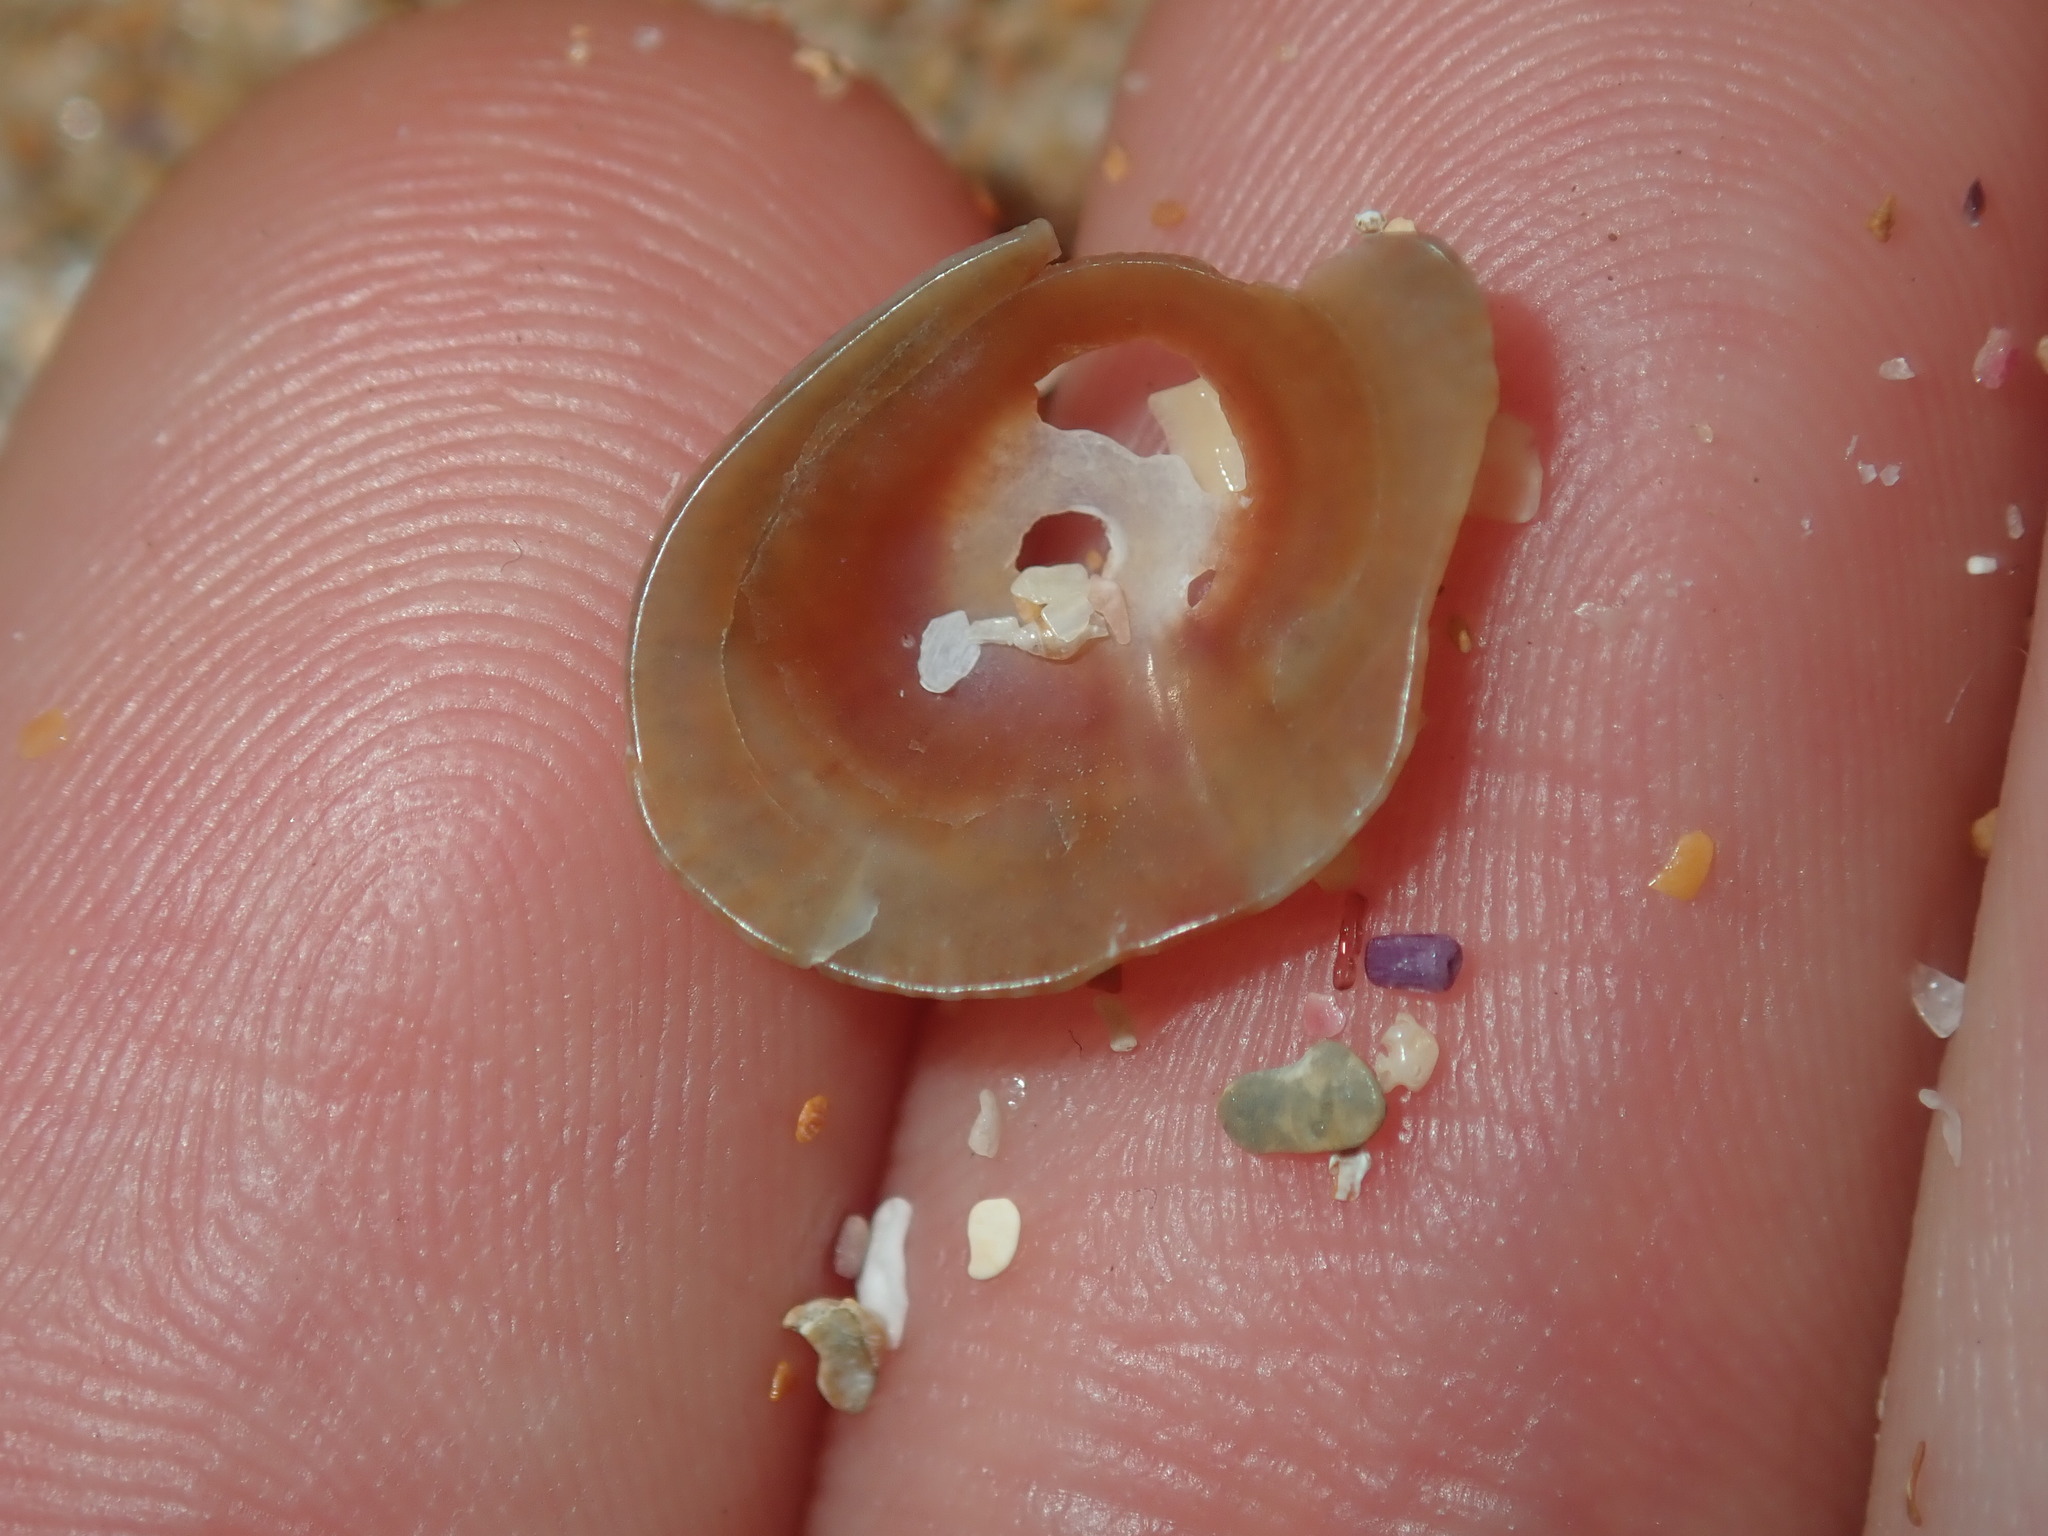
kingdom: Animalia
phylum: Mollusca
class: Gastropoda
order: Siphonariida
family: Siphonariidae
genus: Siphonaria
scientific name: Siphonaria funiculata
